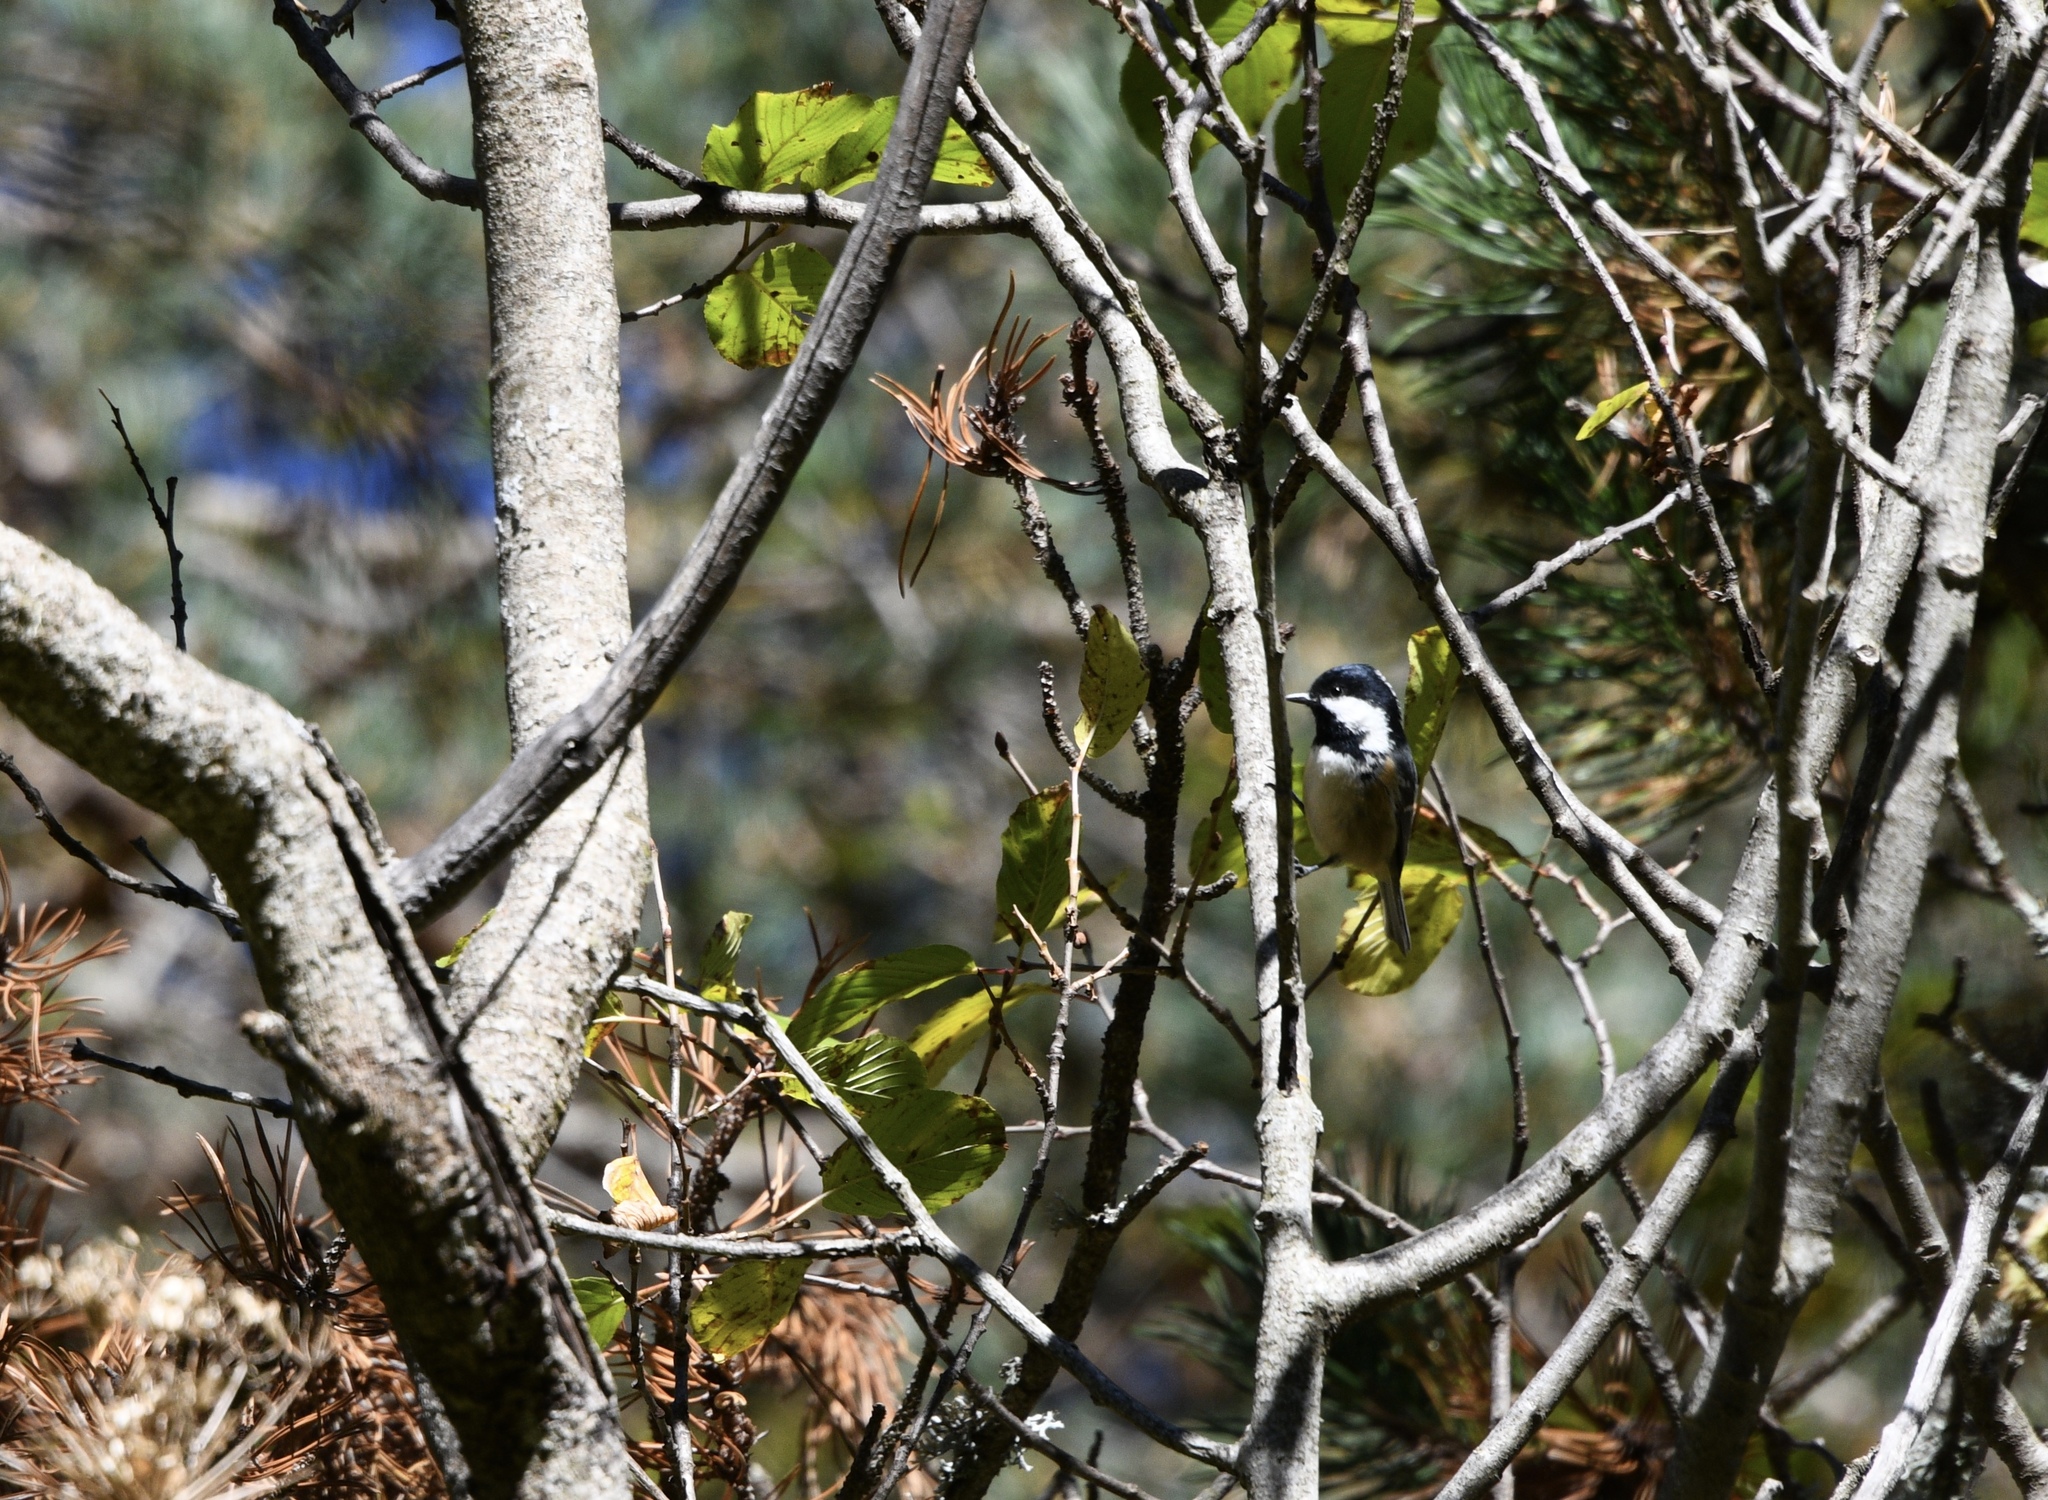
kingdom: Animalia
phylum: Chordata
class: Aves
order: Passeriformes
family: Paridae
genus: Periparus
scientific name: Periparus ater
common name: Coal tit
